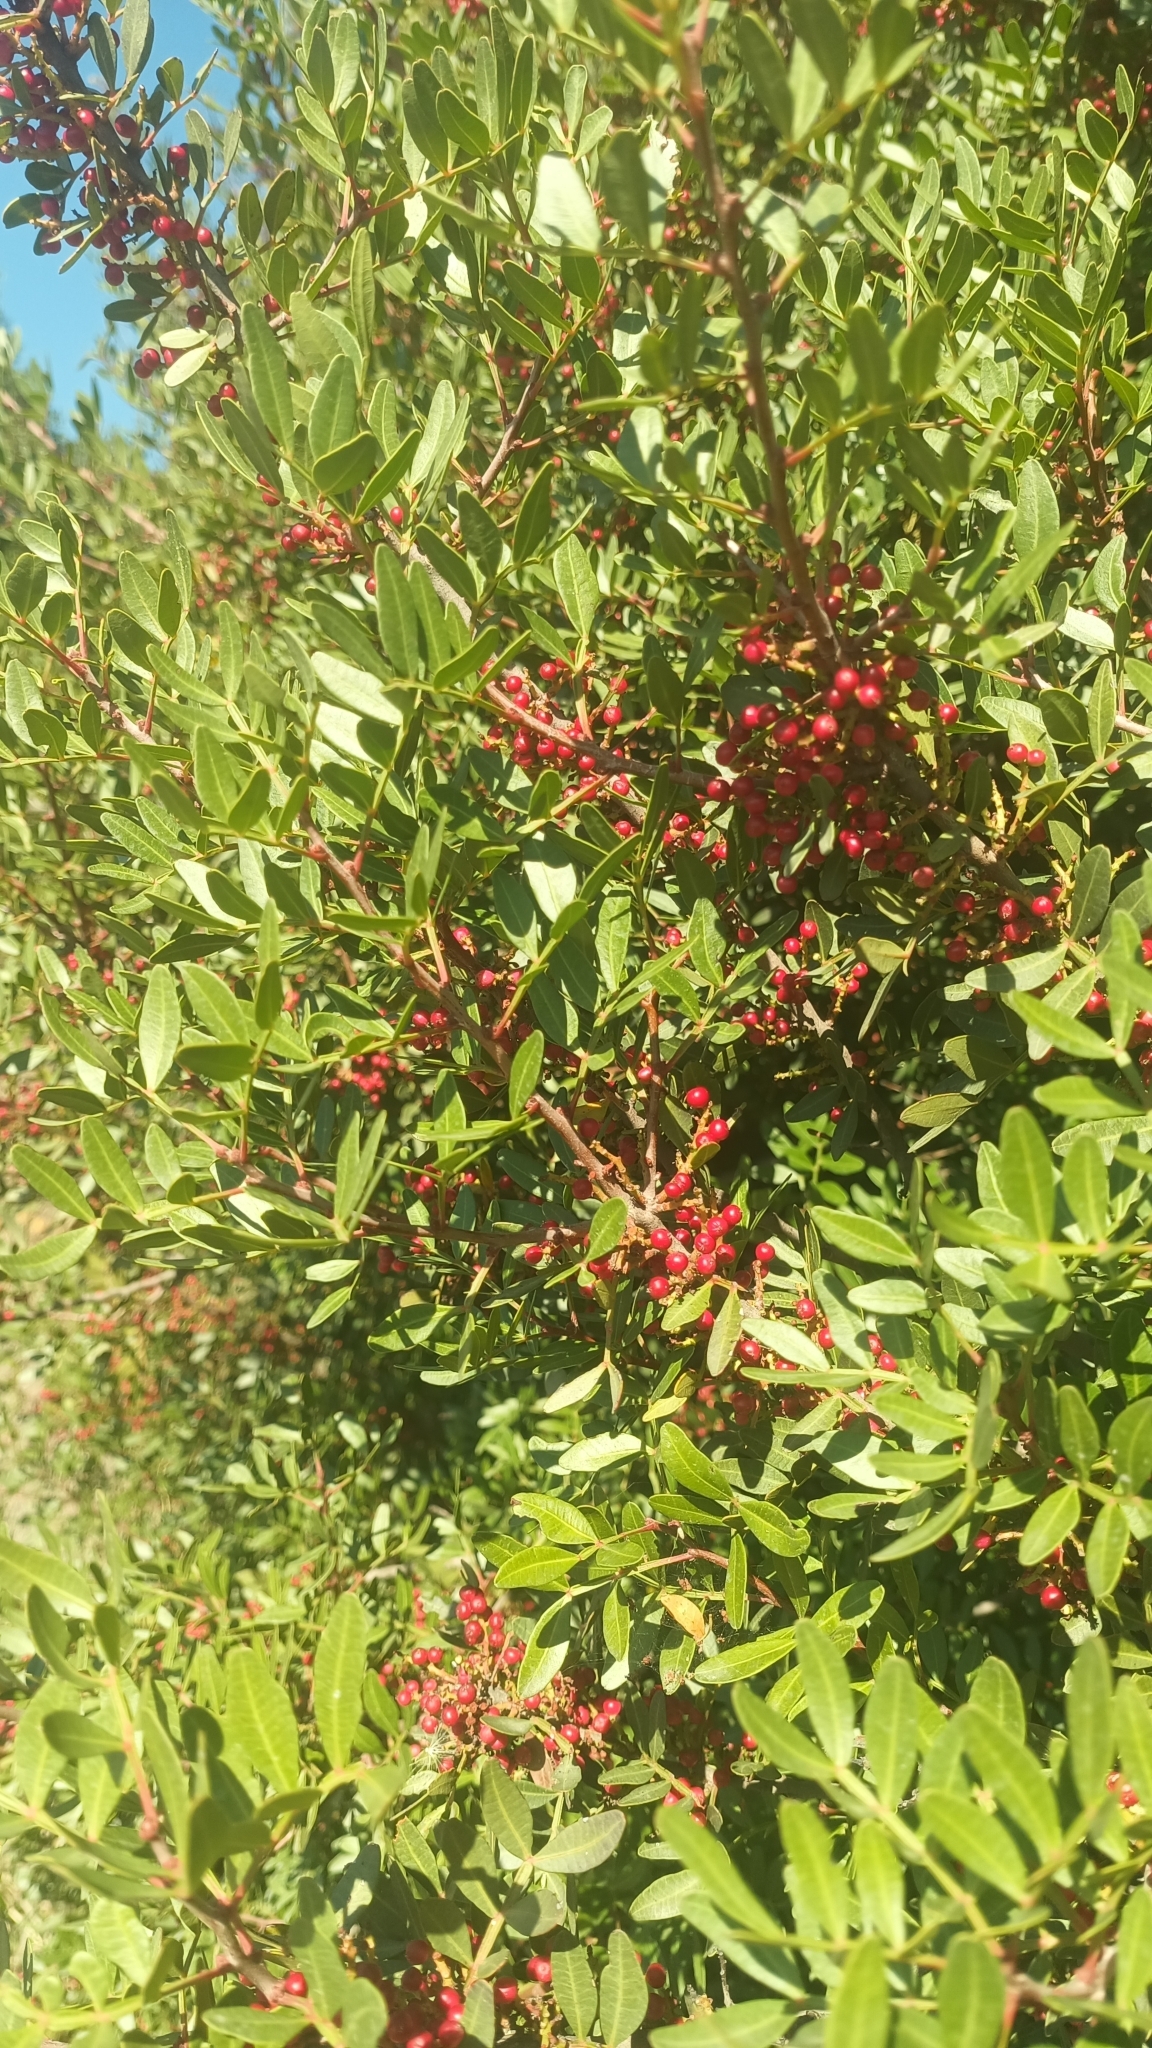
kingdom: Plantae
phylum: Tracheophyta
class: Magnoliopsida
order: Sapindales
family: Anacardiaceae
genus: Pistacia
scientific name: Pistacia lentiscus
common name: Lentisk
